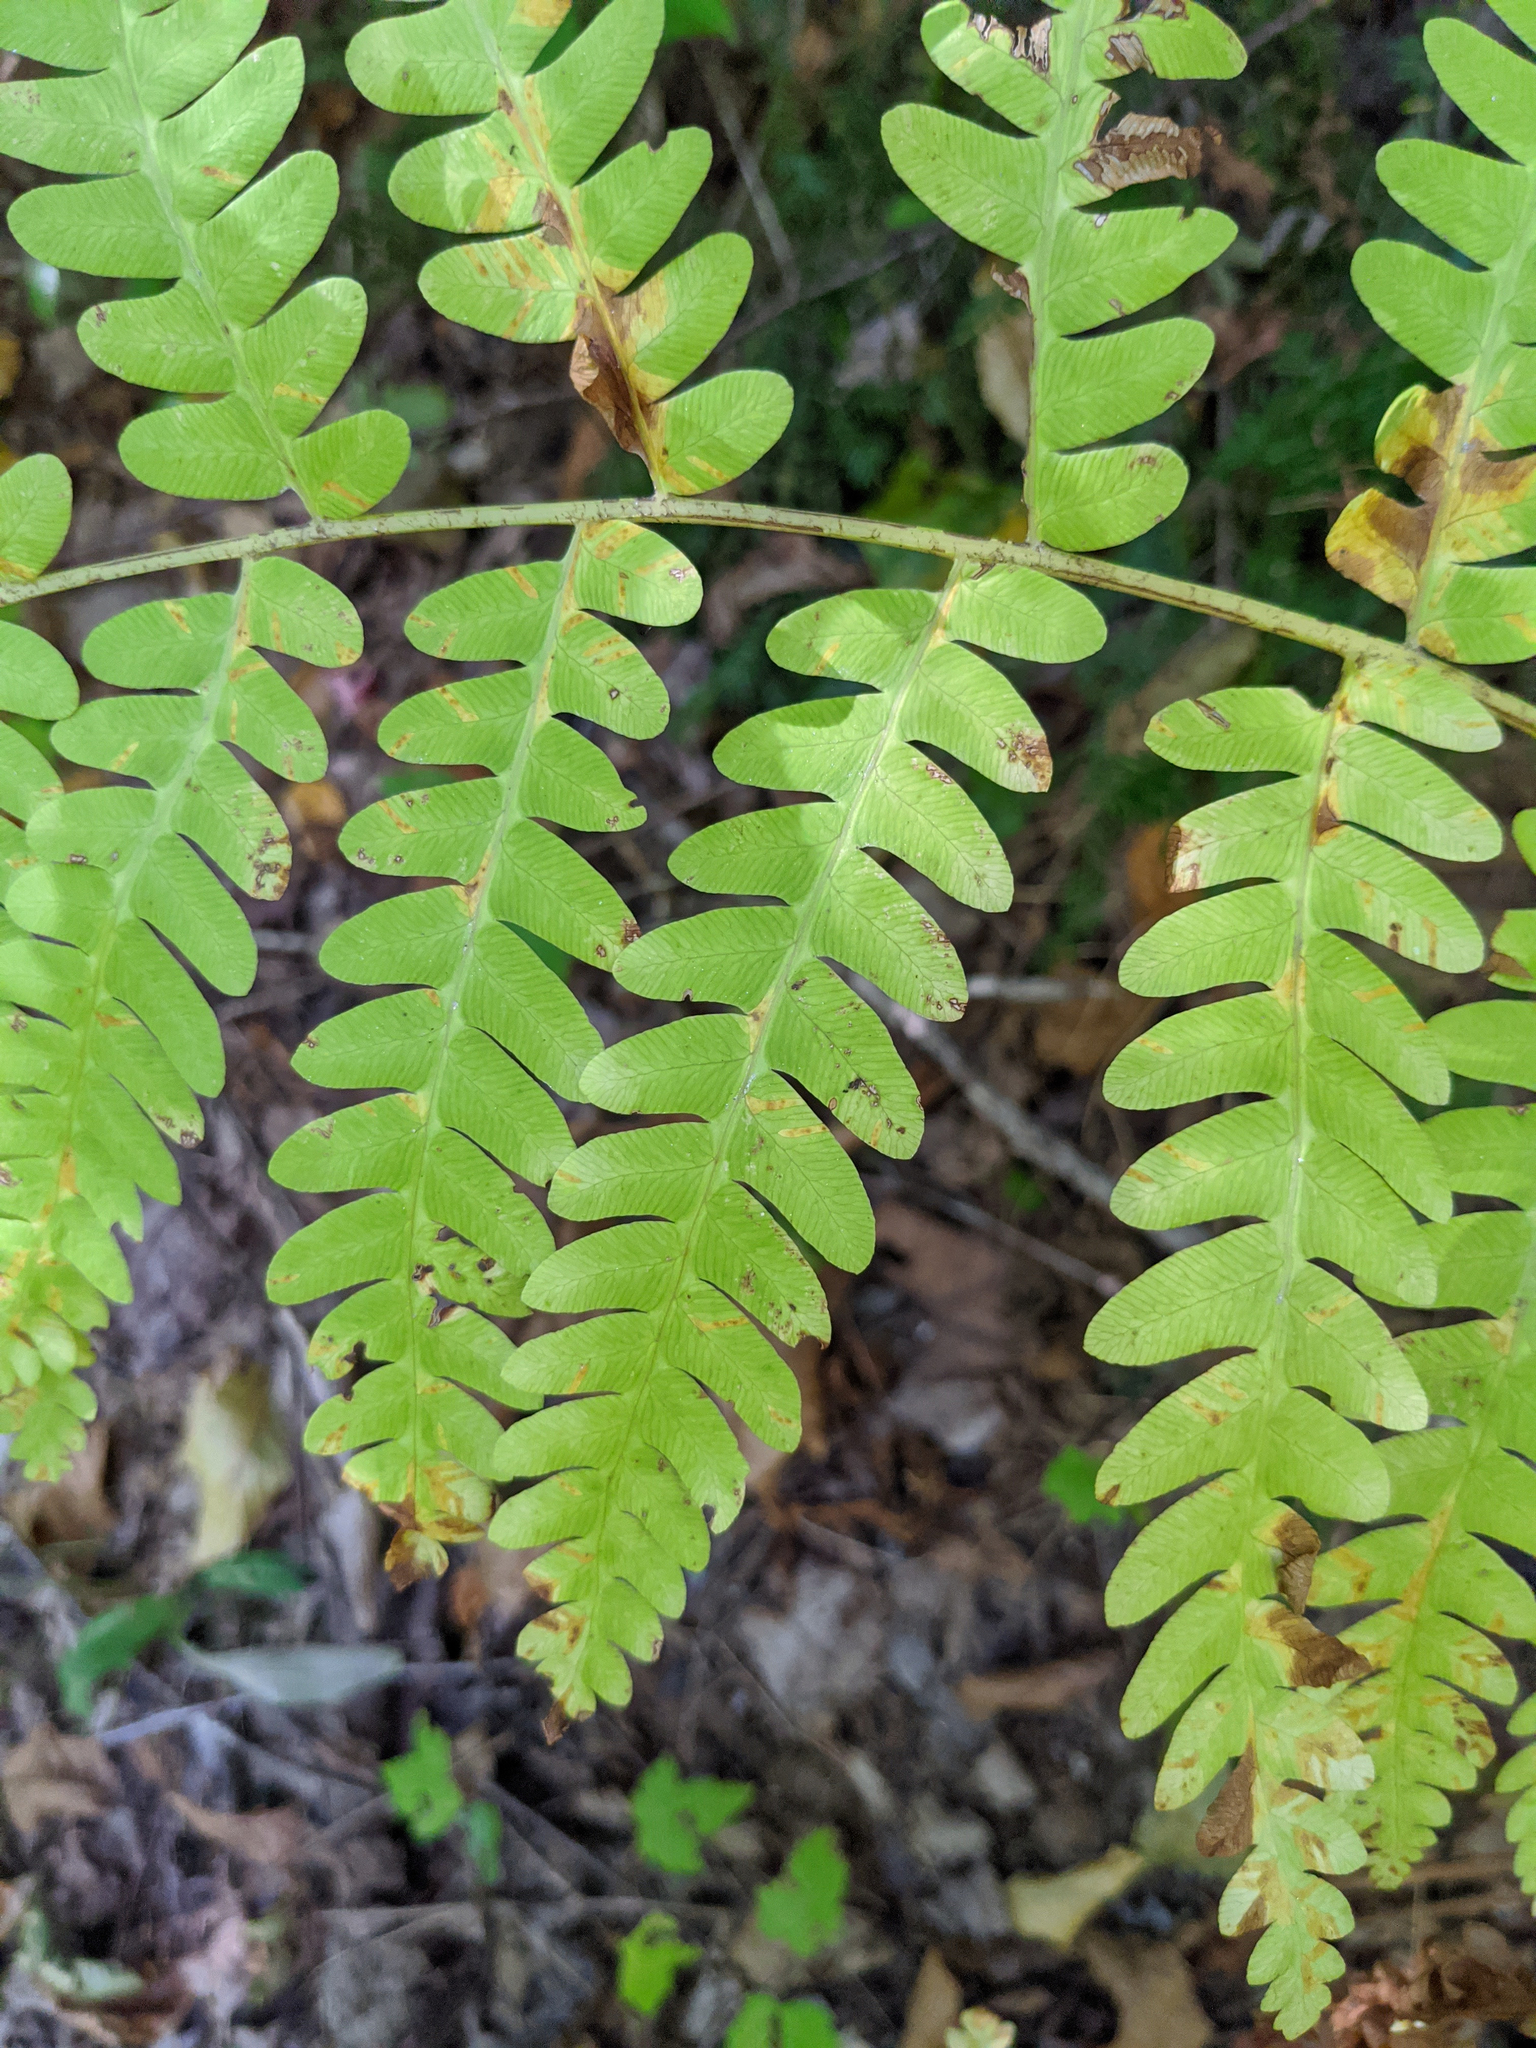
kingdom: Plantae
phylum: Tracheophyta
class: Polypodiopsida
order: Osmundales
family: Osmundaceae
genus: Claytosmunda
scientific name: Claytosmunda claytoniana
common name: Clayton's fern
